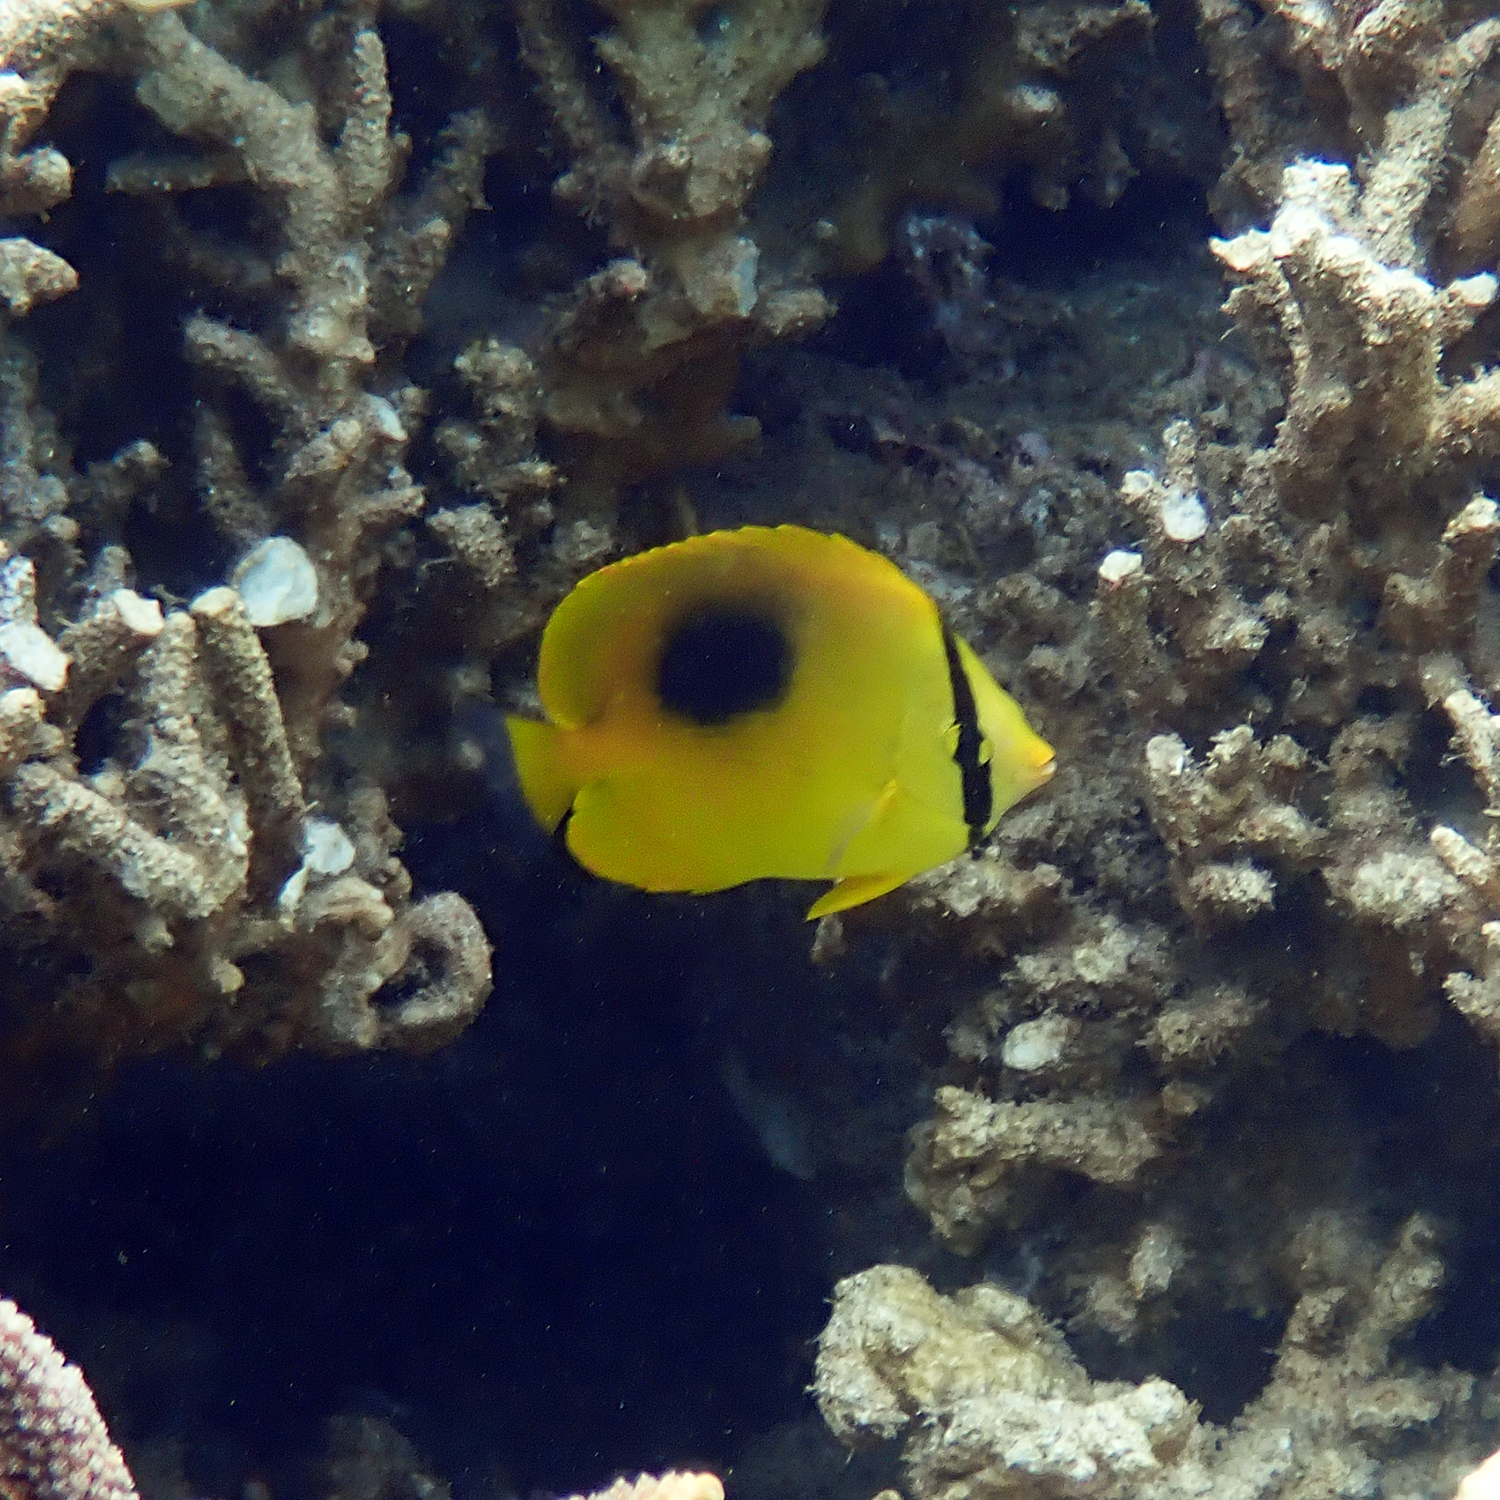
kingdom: Animalia
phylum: Chordata
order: Perciformes
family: Chaetodontidae
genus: Chaetodon
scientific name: Chaetodon speculum
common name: Mirror butterflyfish
